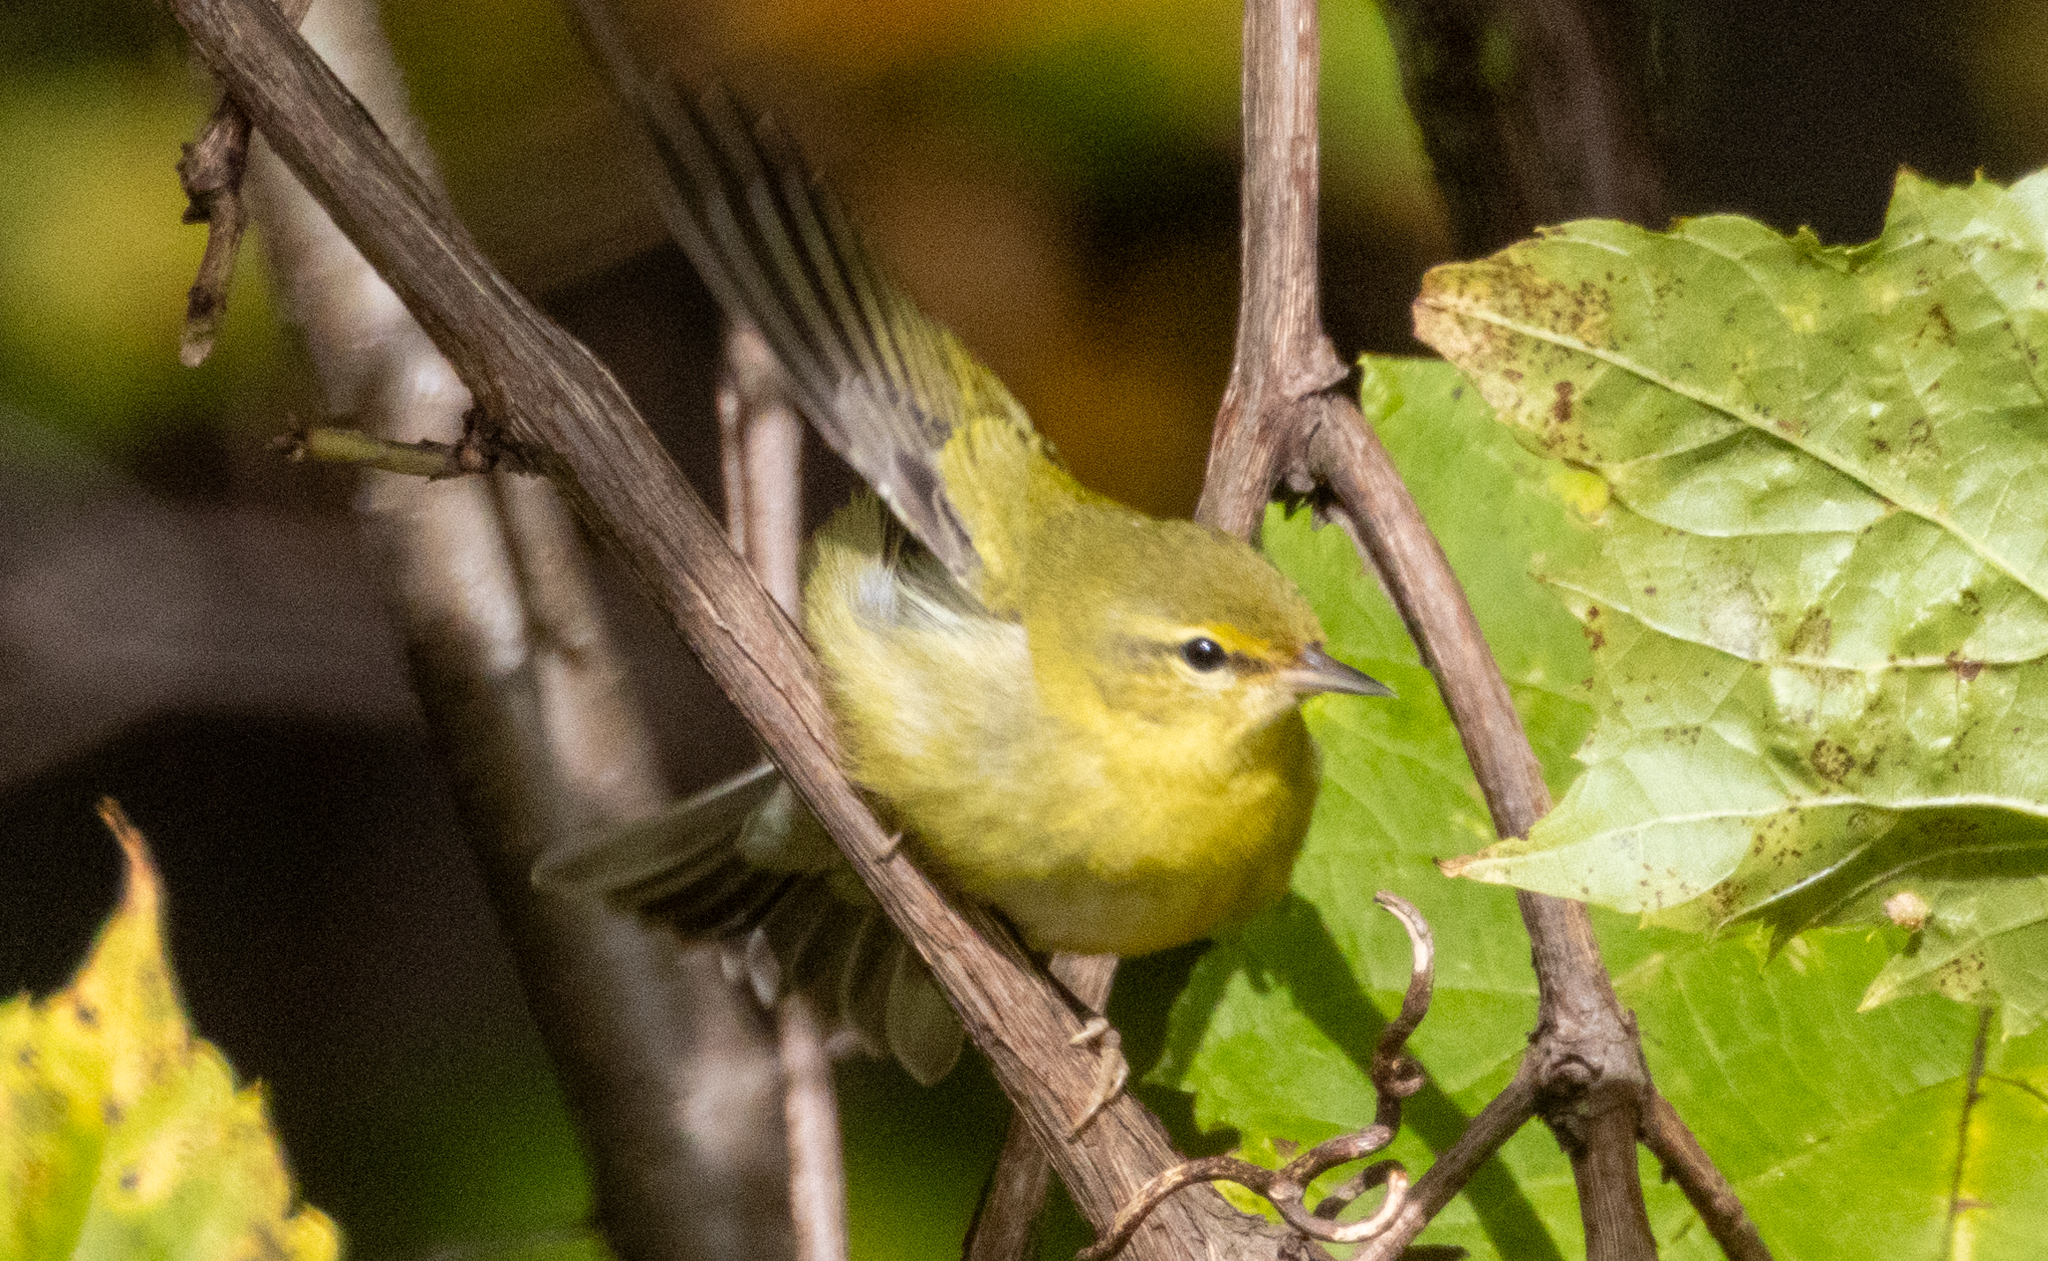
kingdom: Animalia
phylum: Chordata
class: Aves
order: Passeriformes
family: Parulidae
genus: Leiothlypis
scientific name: Leiothlypis peregrina
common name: Tennessee warbler
